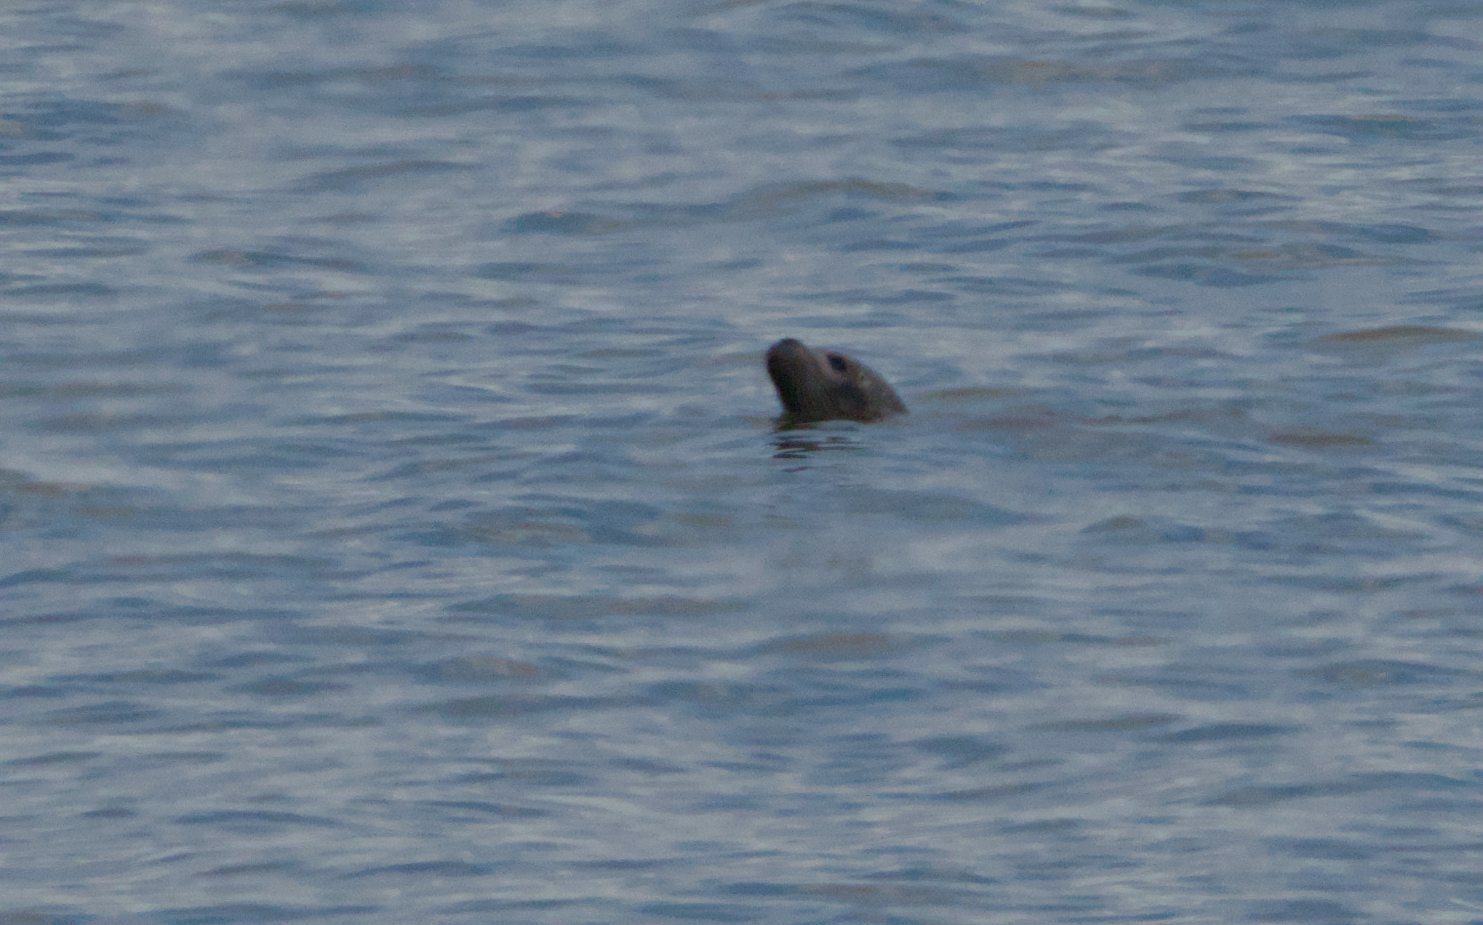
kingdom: Animalia
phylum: Chordata
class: Mammalia
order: Carnivora
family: Phocidae
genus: Phoca
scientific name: Phoca vitulina
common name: Harbor seal
